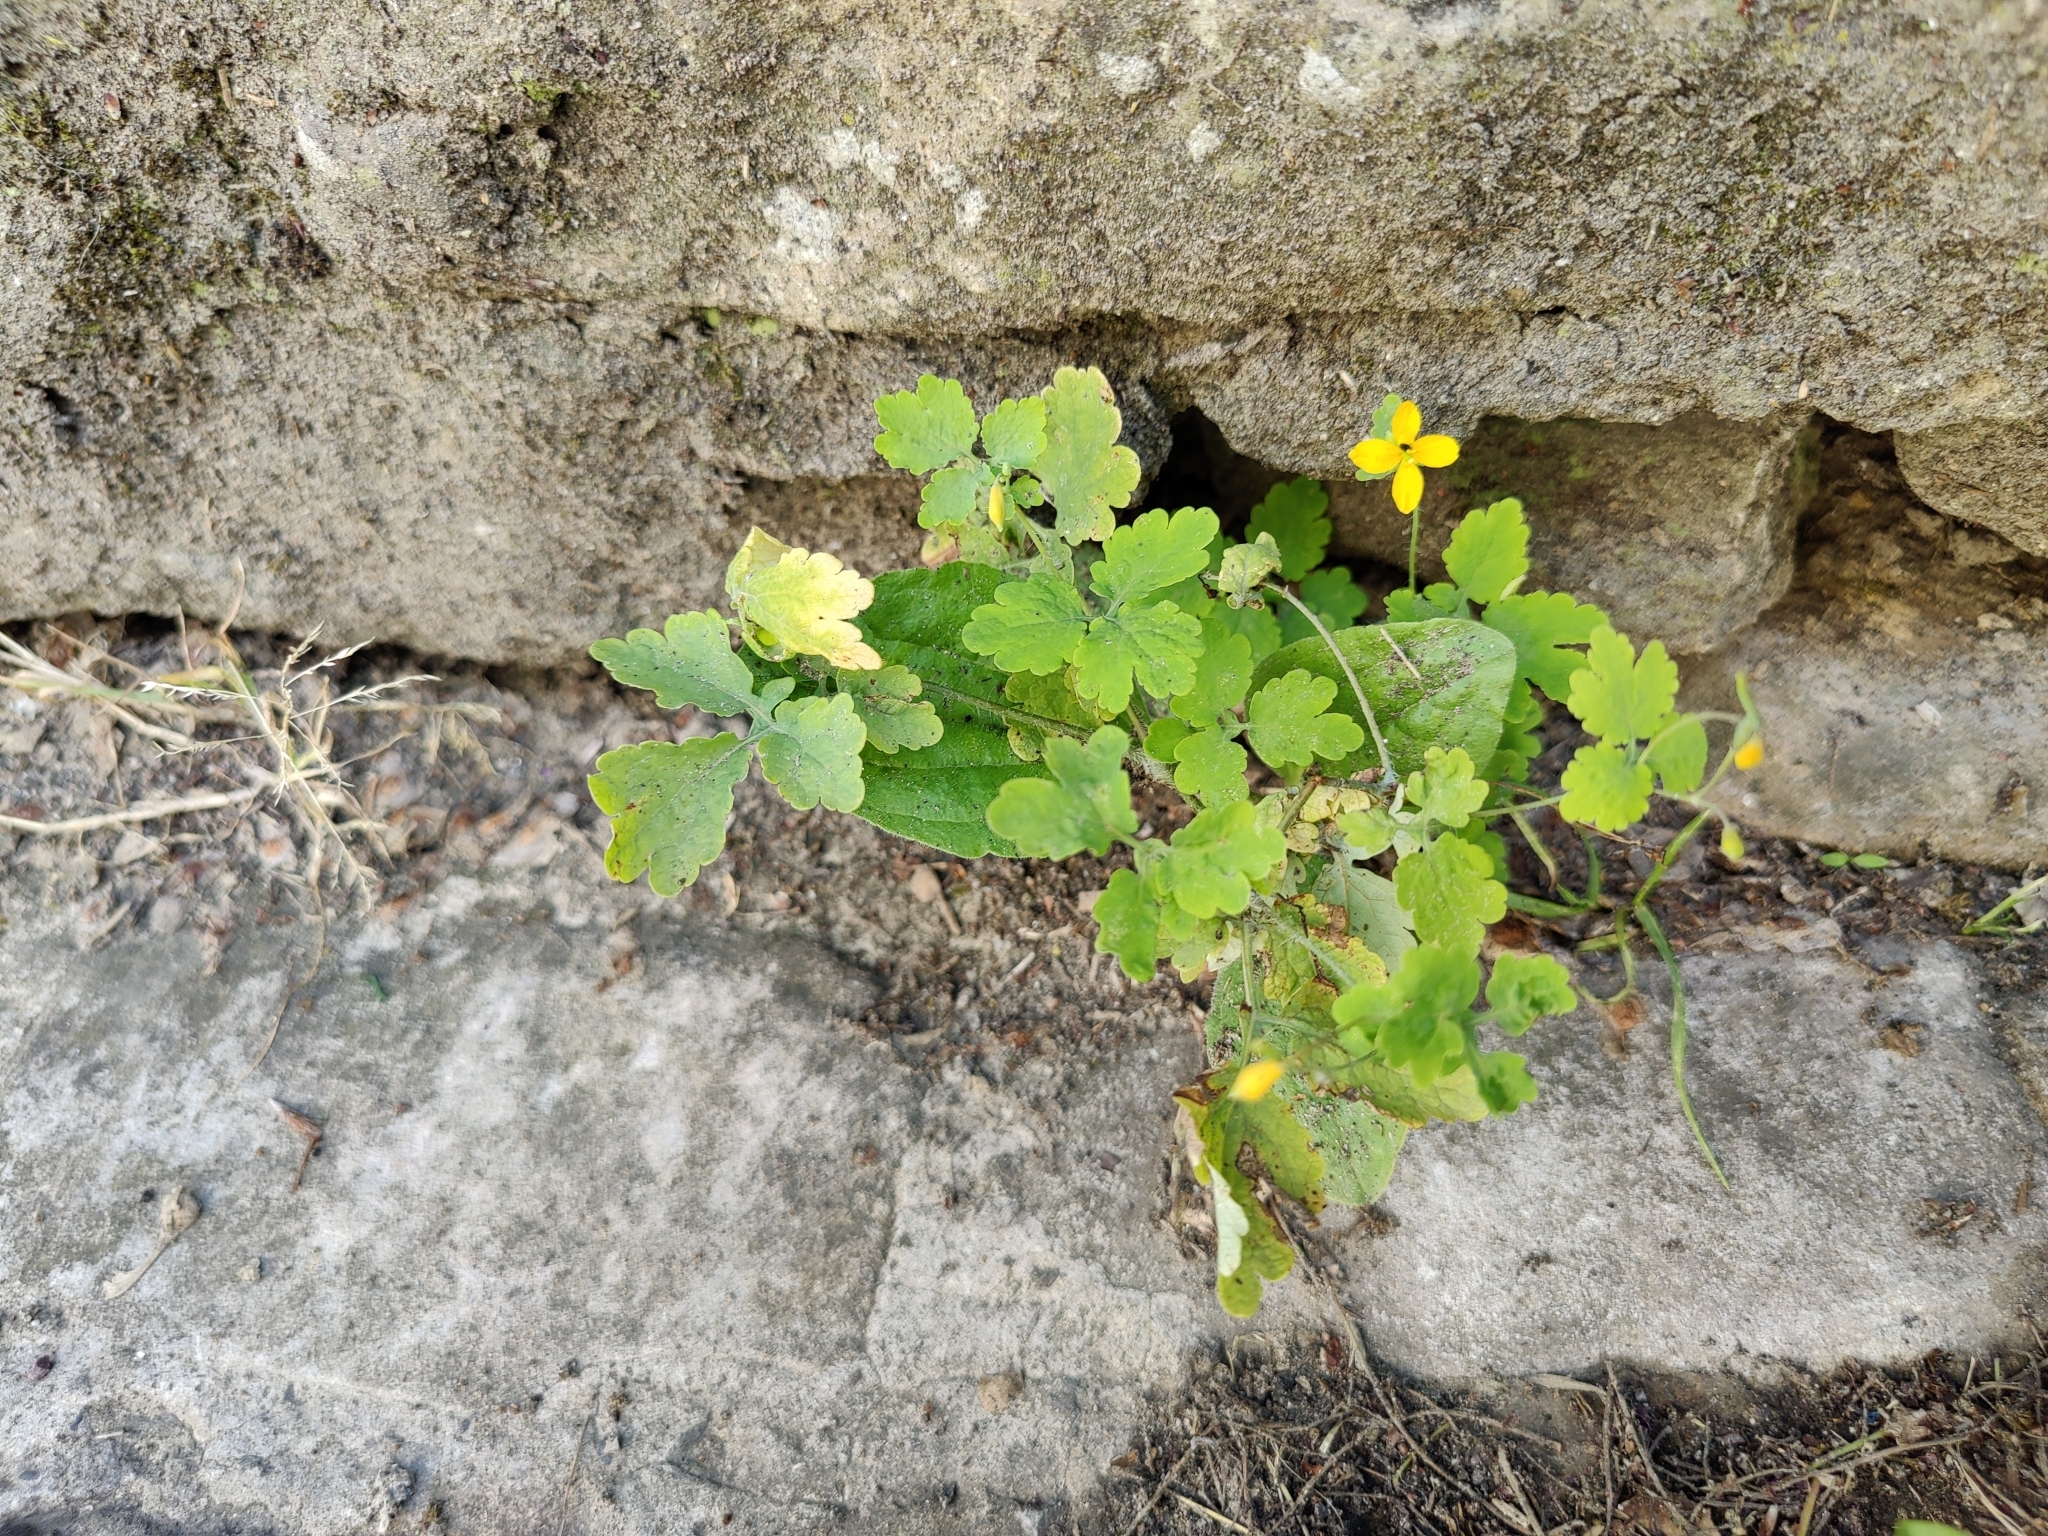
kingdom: Plantae
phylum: Tracheophyta
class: Magnoliopsida
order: Ranunculales
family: Papaveraceae
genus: Chelidonium
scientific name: Chelidonium majus
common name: Greater celandine
